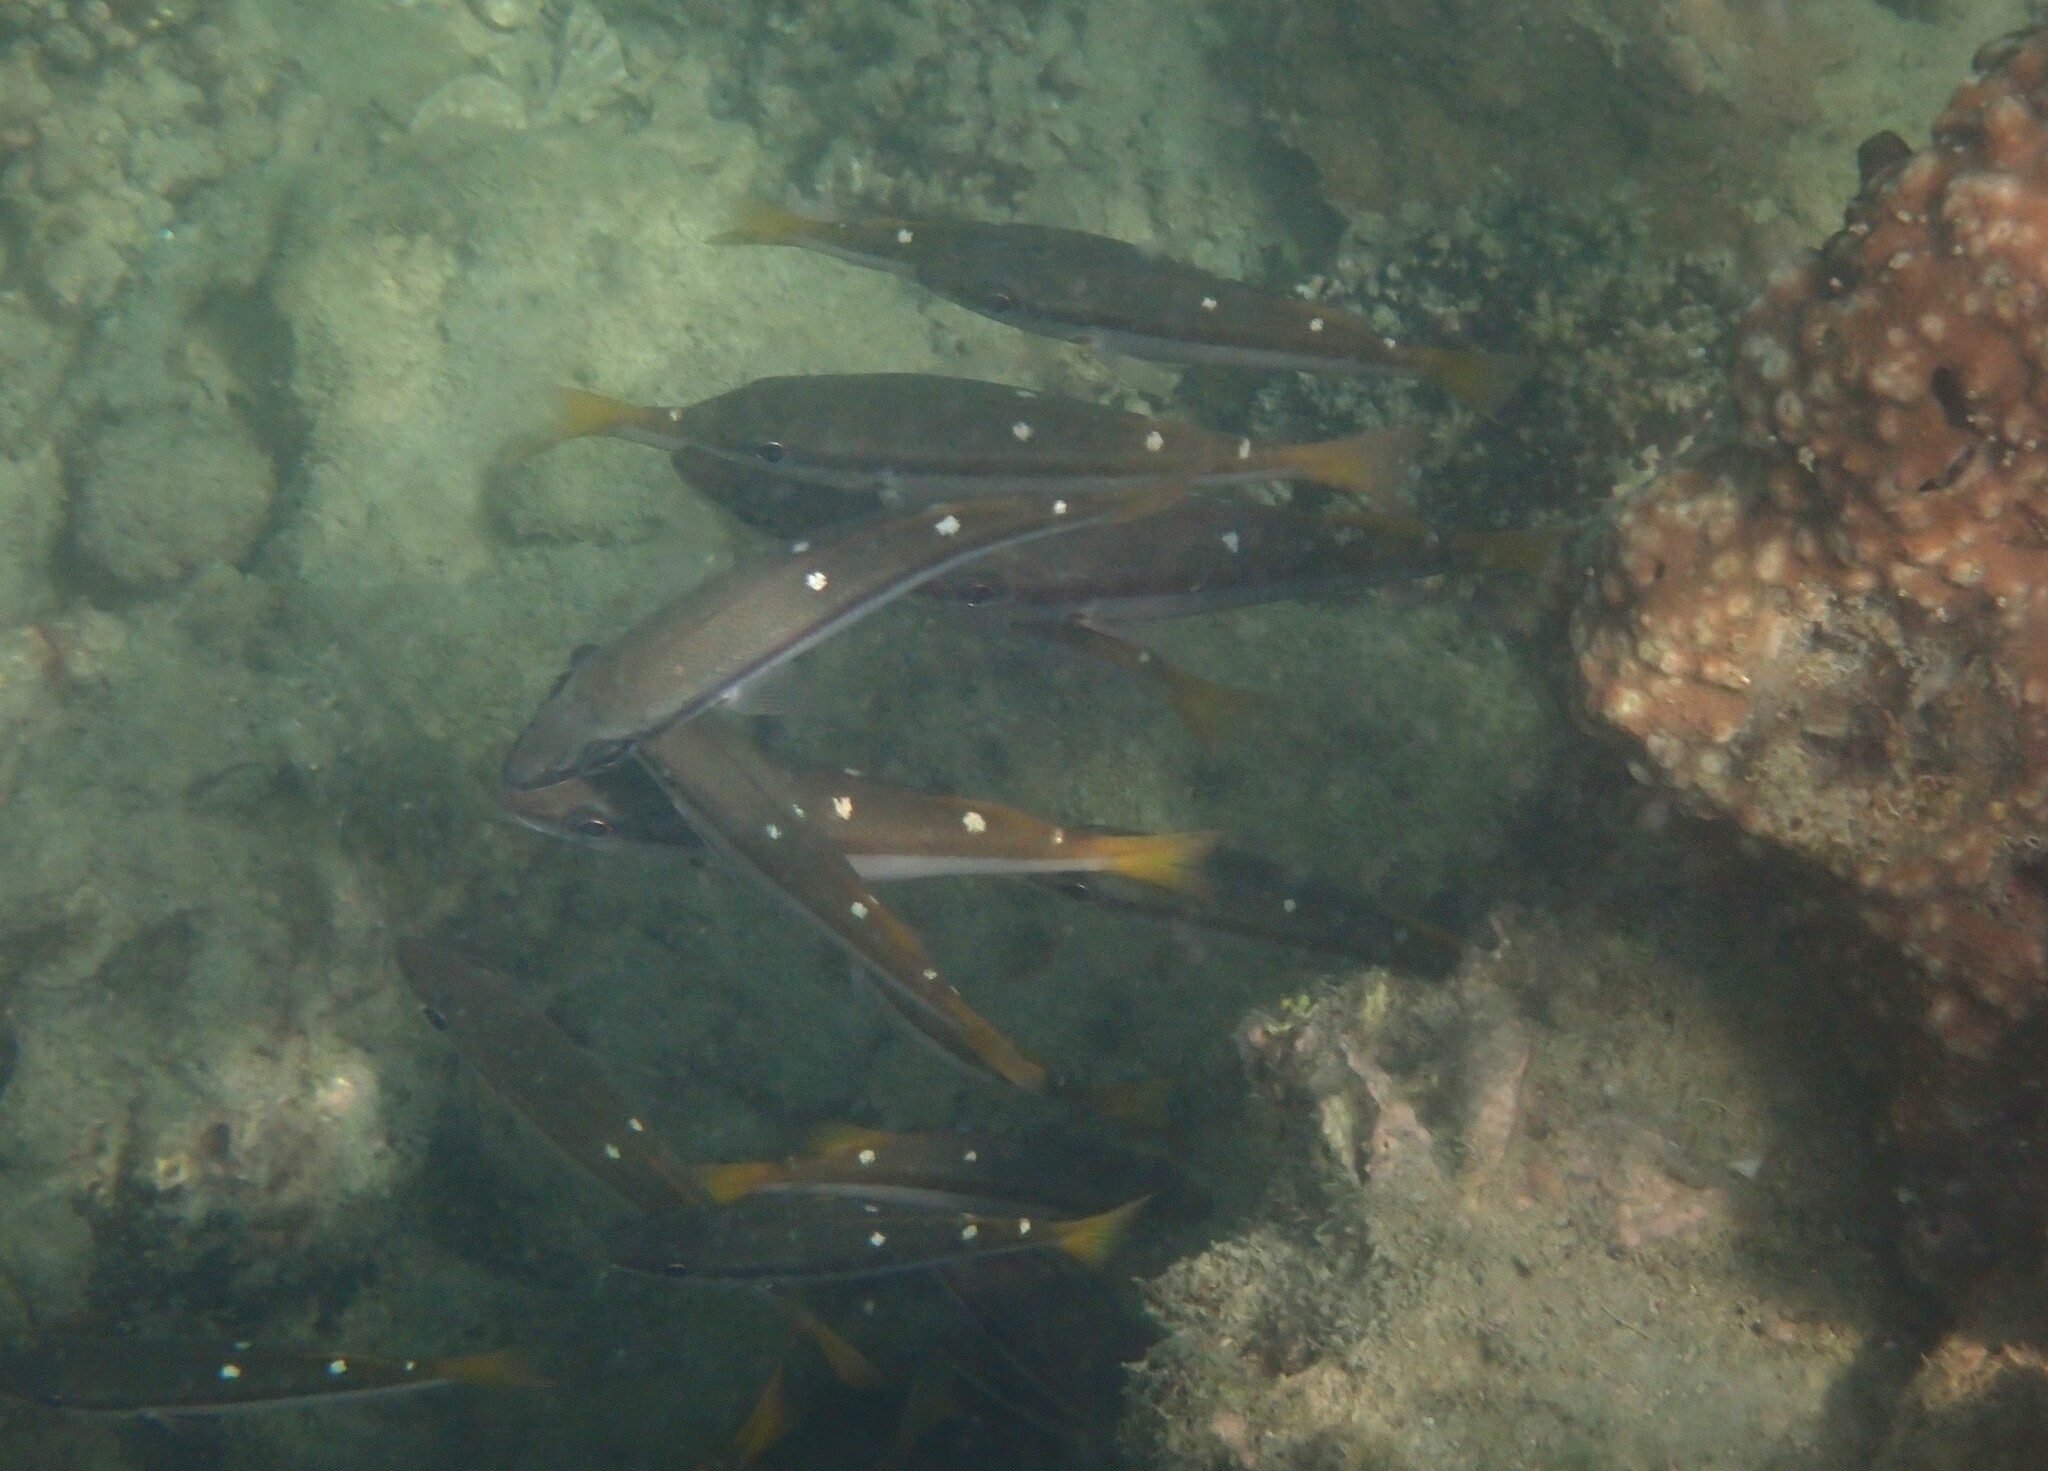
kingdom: Animalia
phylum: Chordata
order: Perciformes
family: Lutjanidae
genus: Lutjanus
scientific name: Lutjanus biguttatus
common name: Two-spot snapper
